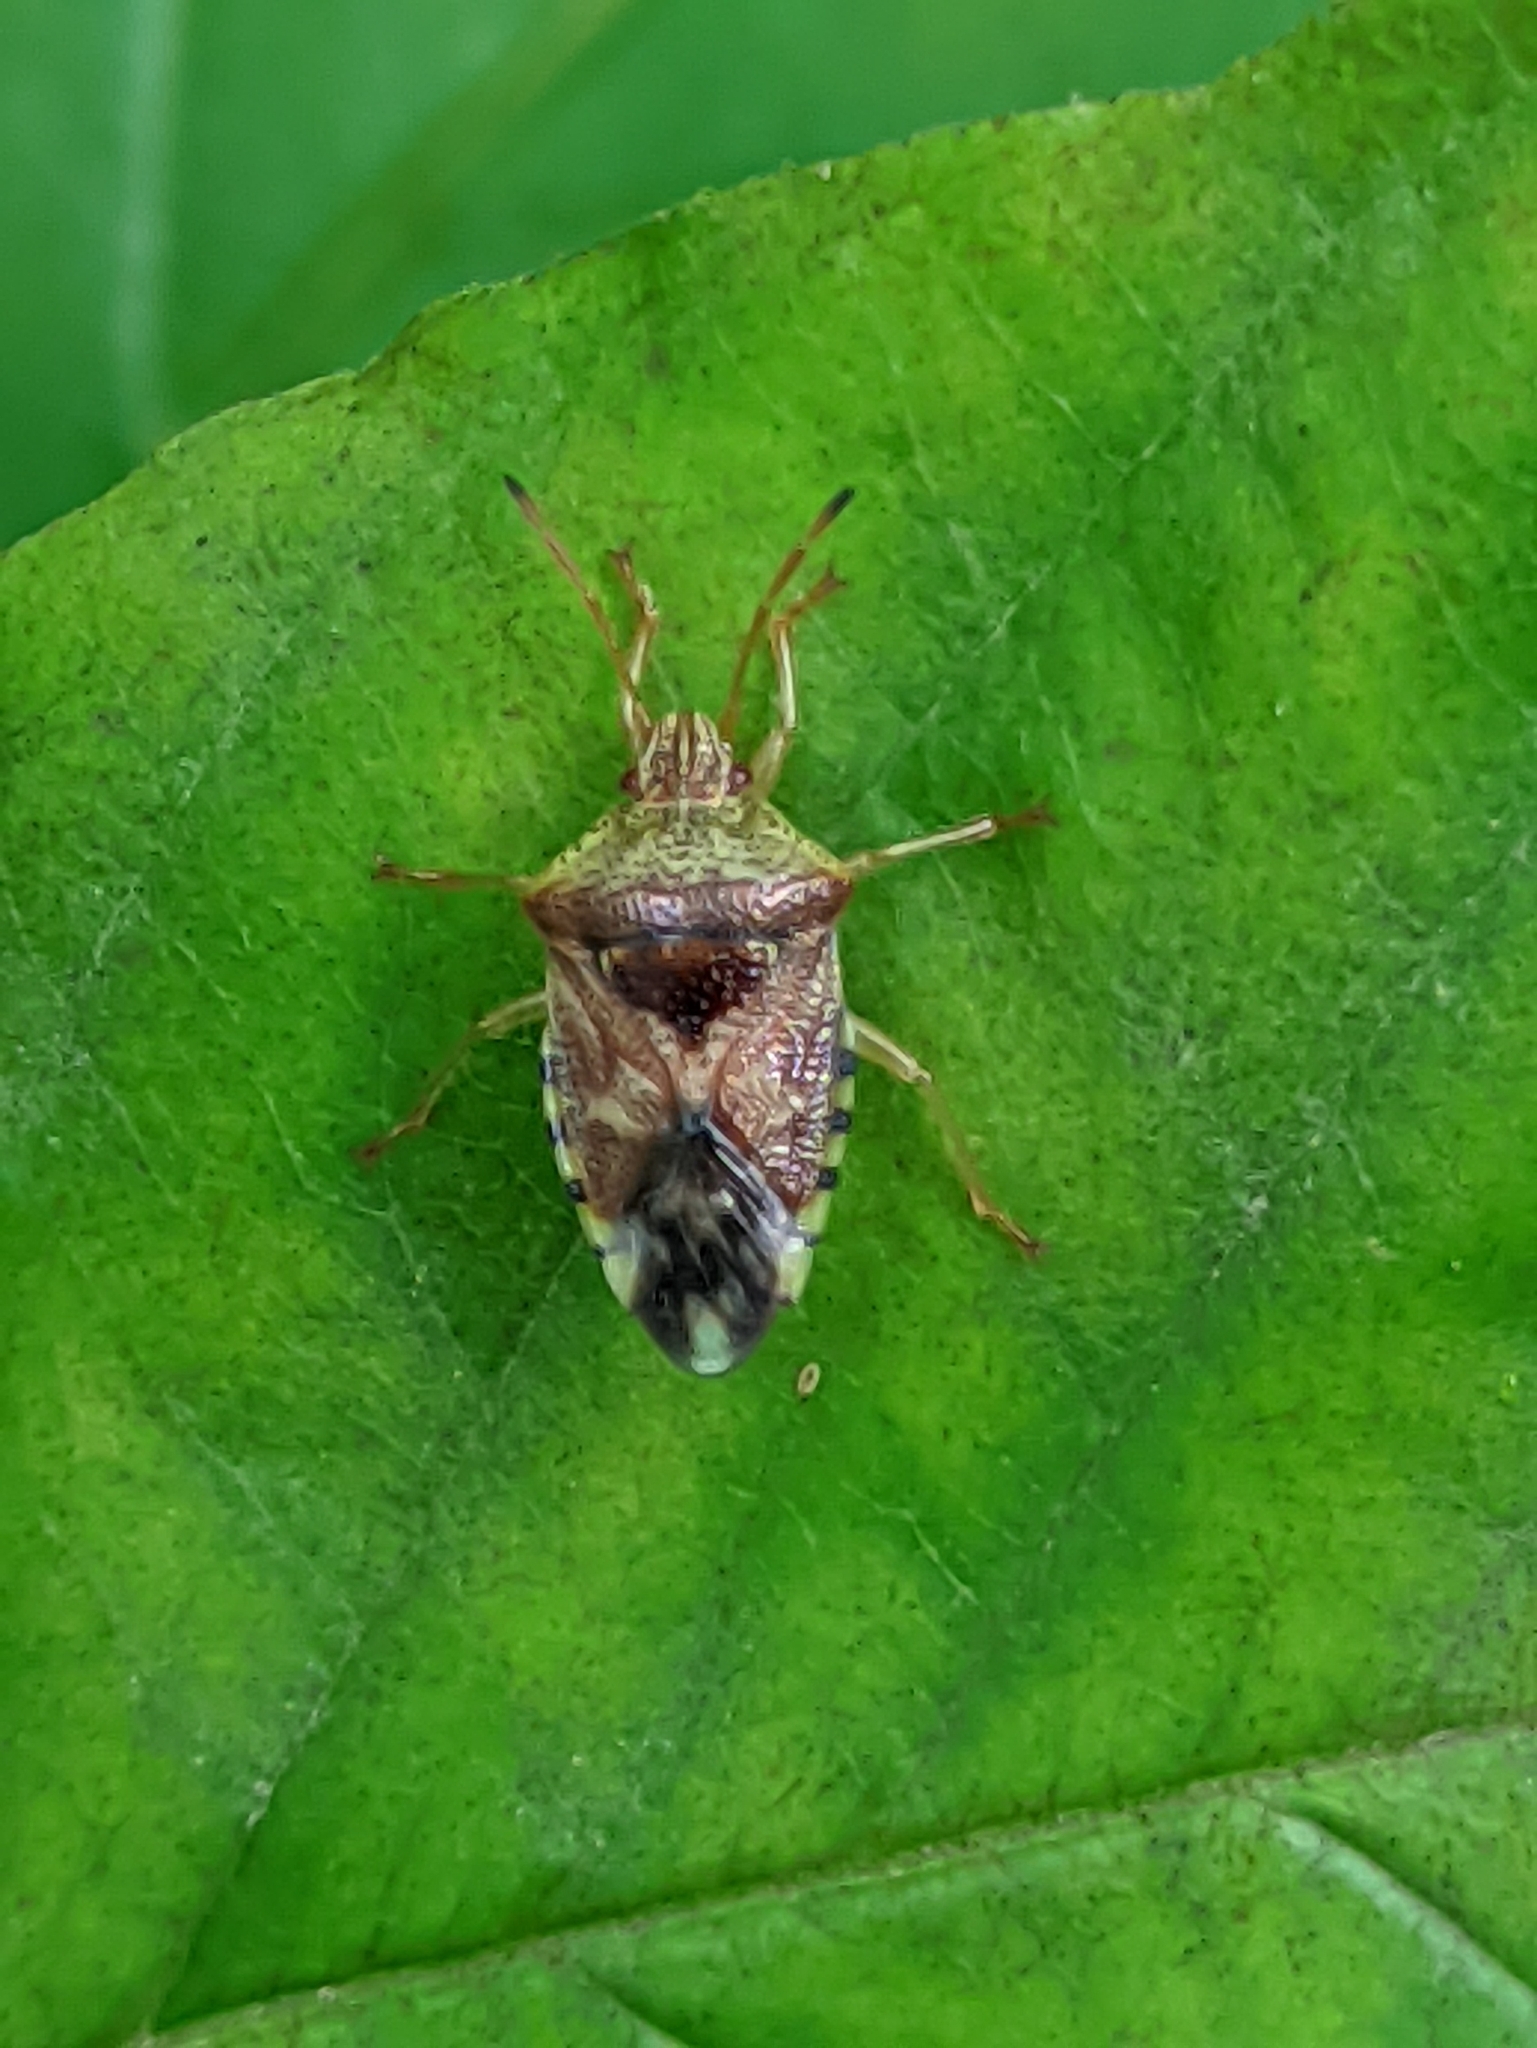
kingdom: Animalia
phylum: Arthropoda
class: Insecta
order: Hemiptera
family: Acanthosomatidae
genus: Elasmucha
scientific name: Elasmucha grisea
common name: Parent bug
